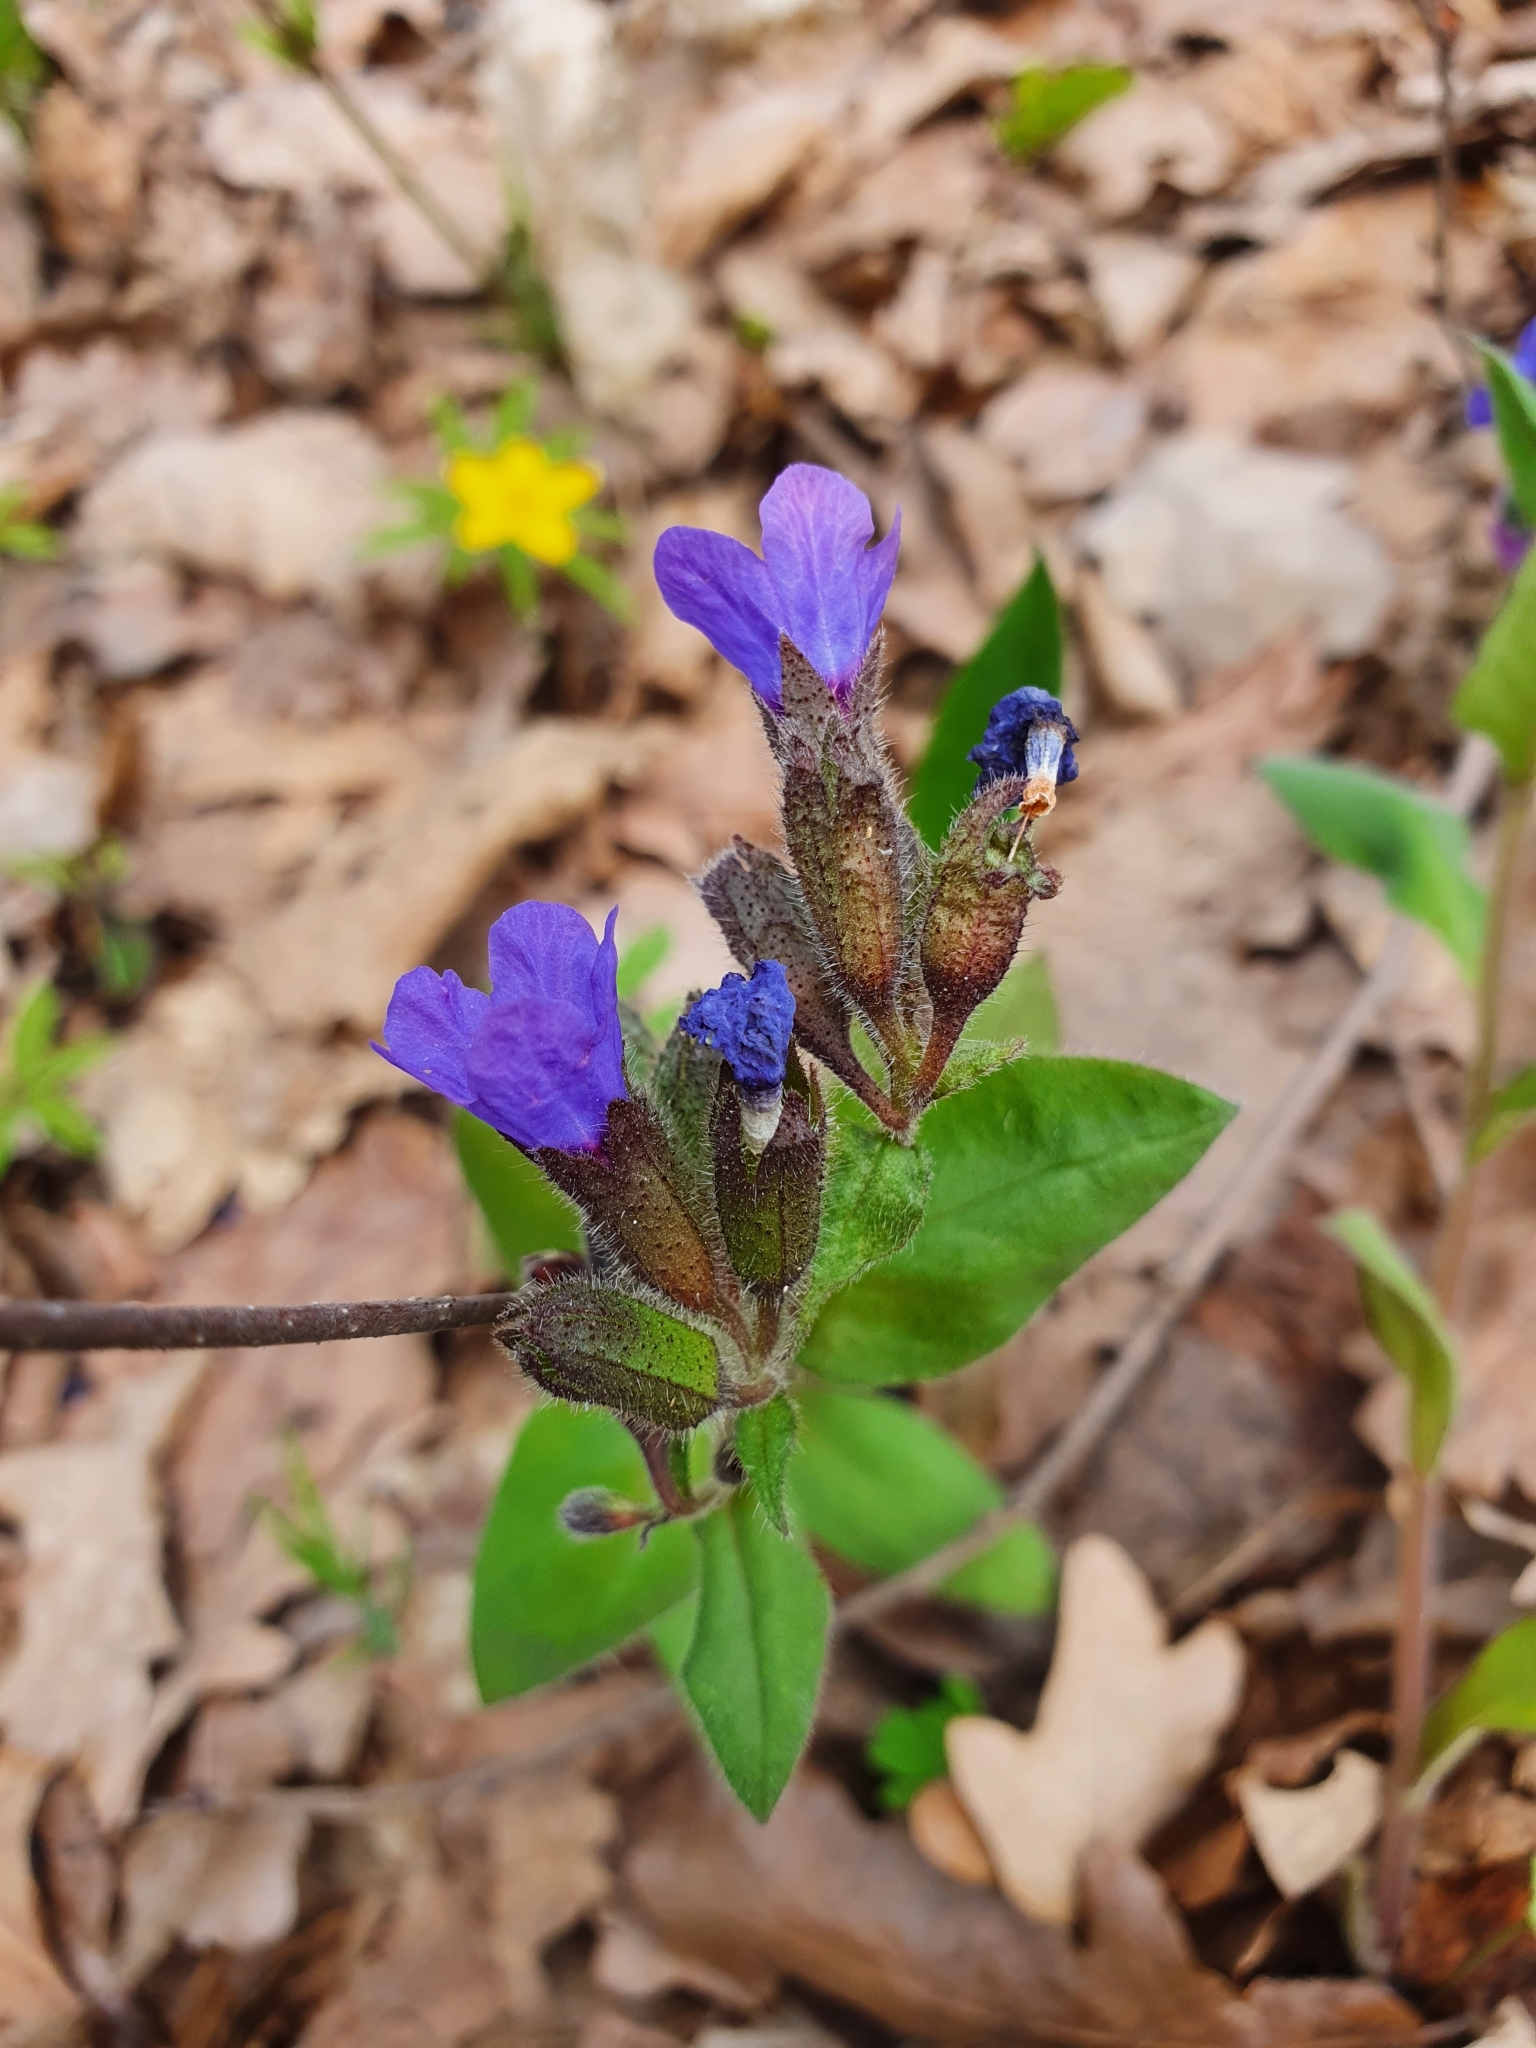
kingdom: Plantae
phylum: Tracheophyta
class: Magnoliopsida
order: Boraginales
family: Boraginaceae
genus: Pulmonaria
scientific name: Pulmonaria obscura
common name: Suffolk lungwort
